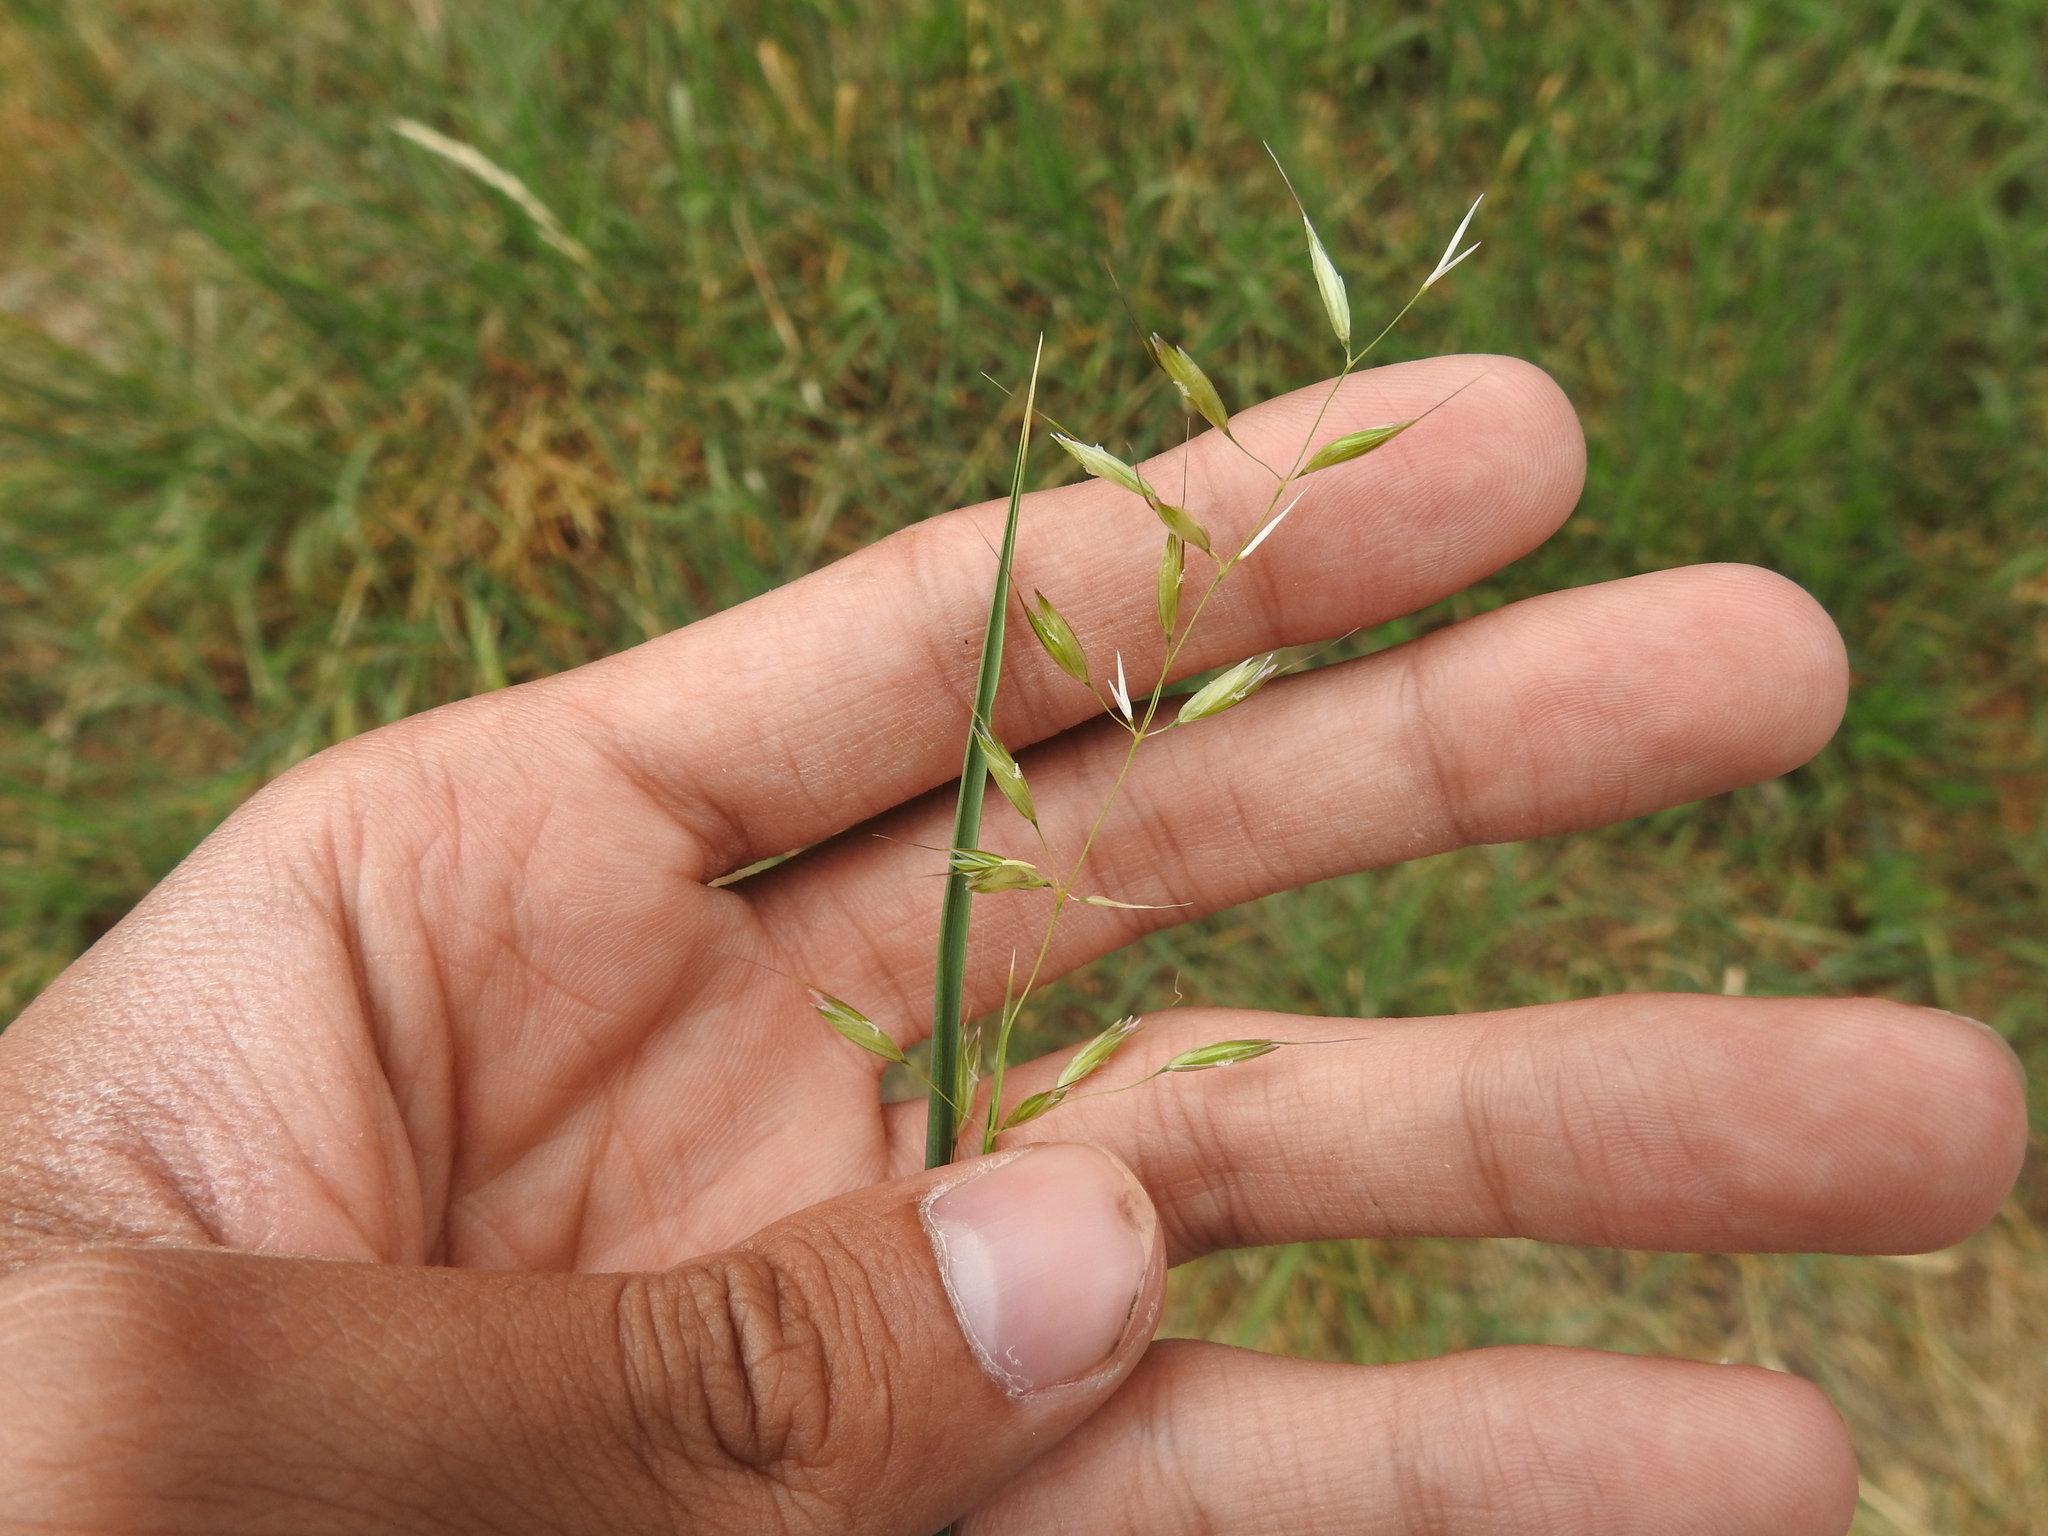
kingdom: Plantae
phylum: Tracheophyta
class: Liliopsida
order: Poales
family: Poaceae
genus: Arrhenatherum
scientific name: Arrhenatherum elatius
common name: Tall oatgrass
